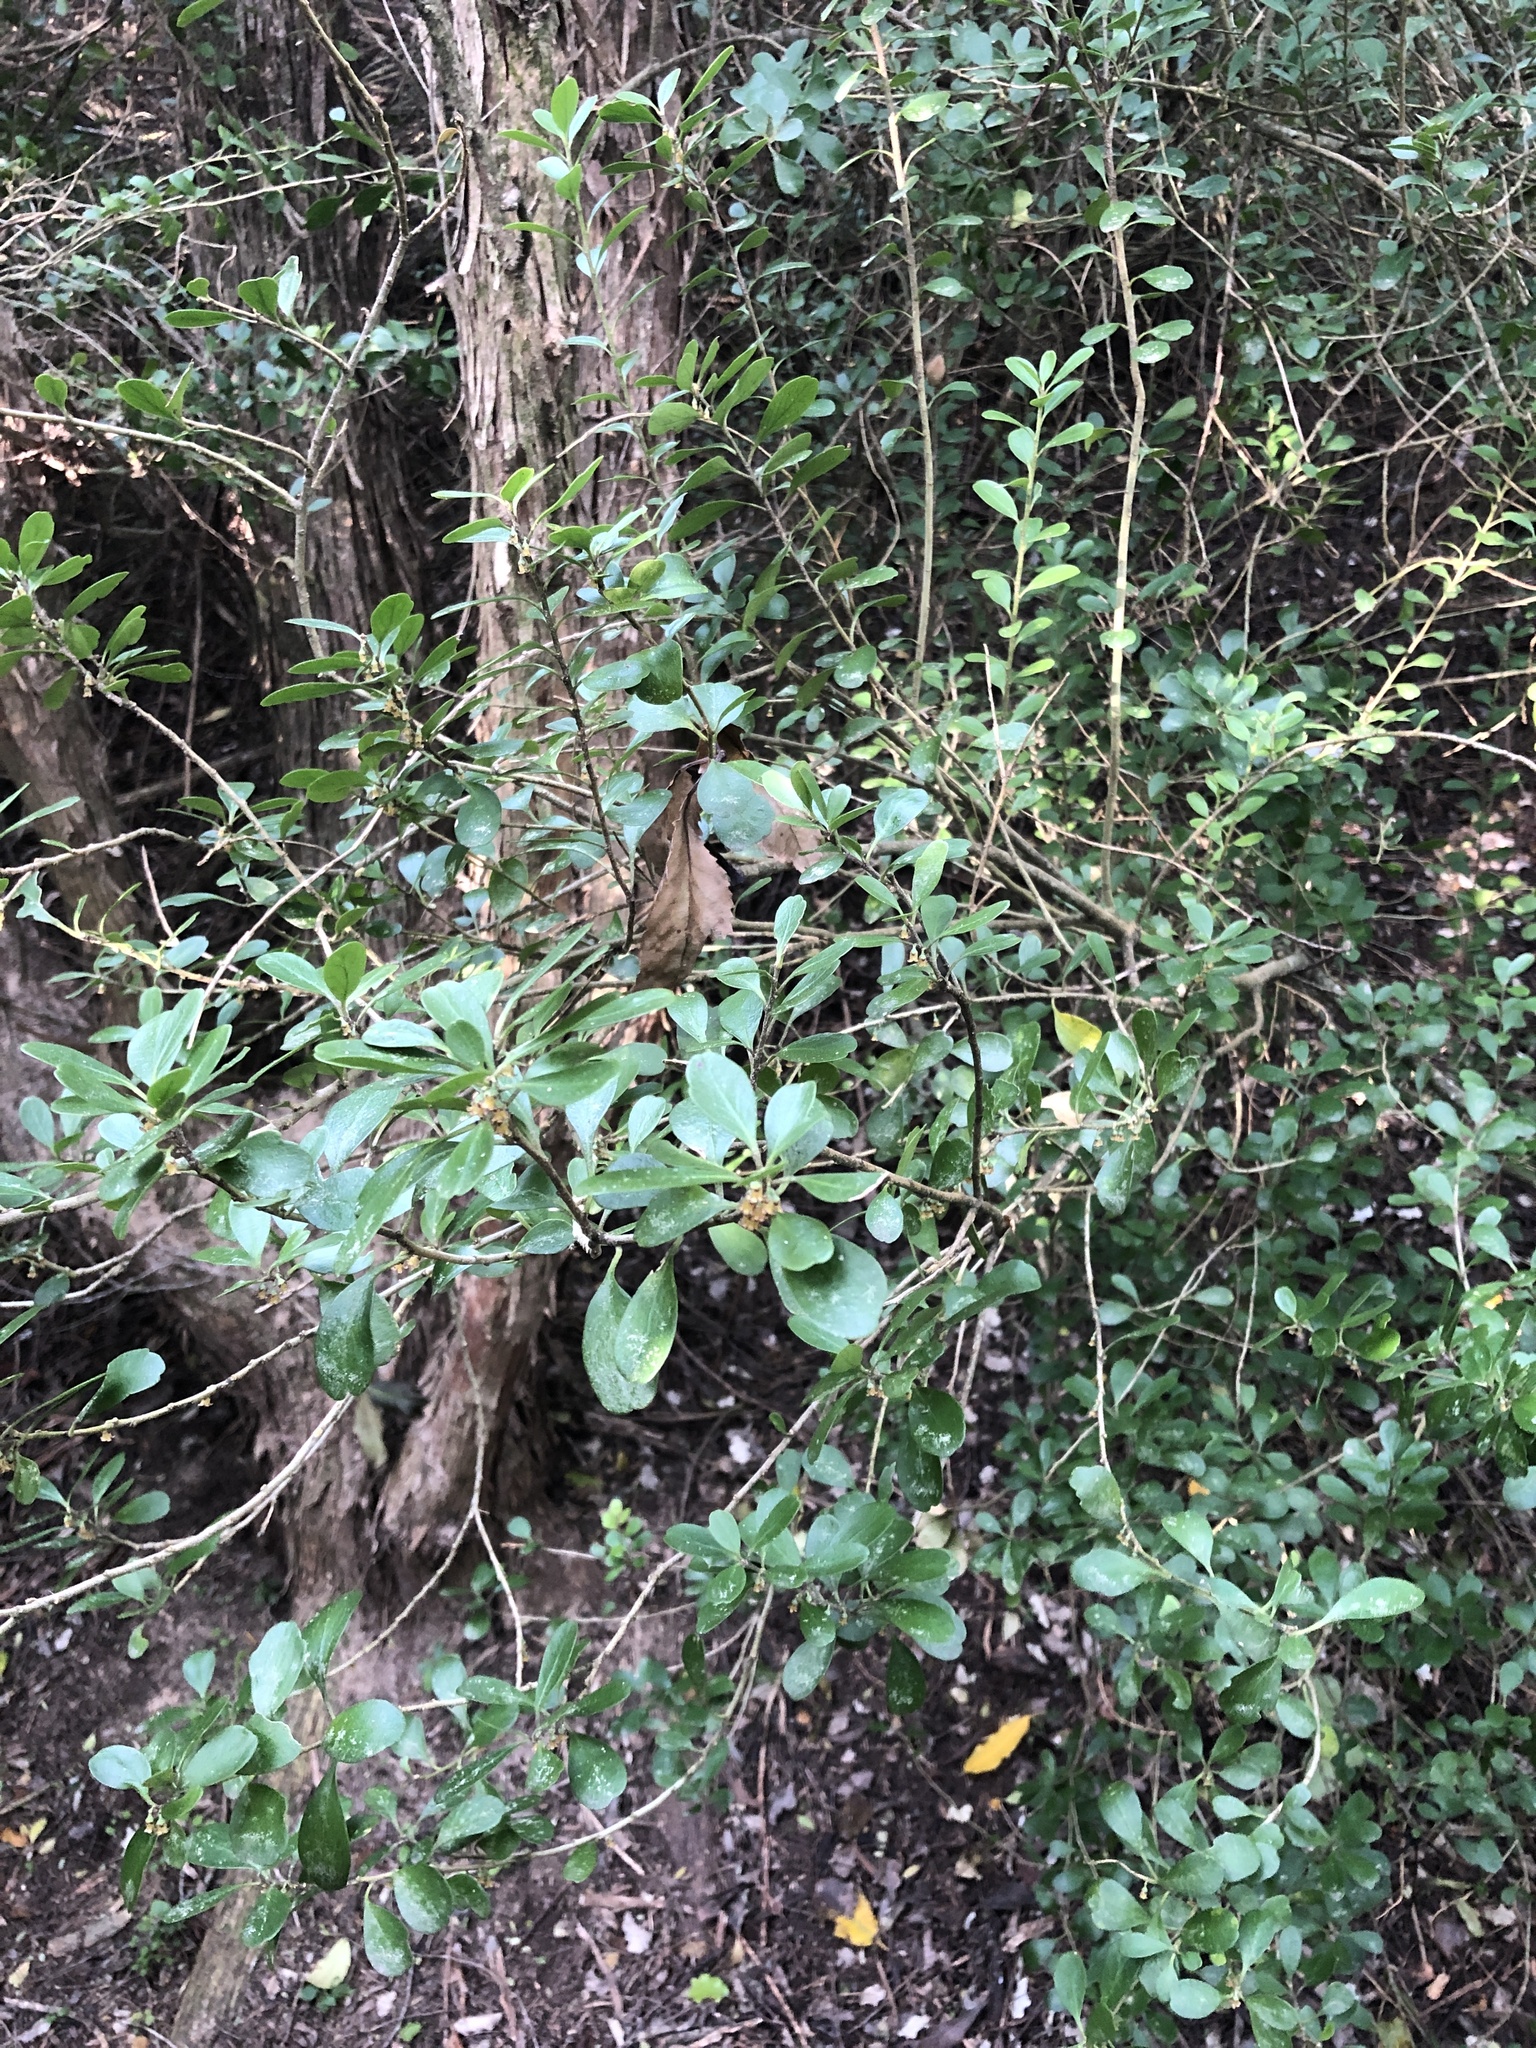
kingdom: Plantae
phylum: Tracheophyta
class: Magnoliopsida
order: Malpighiales
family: Violaceae
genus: Melicytus
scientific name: Melicytus obovatus
